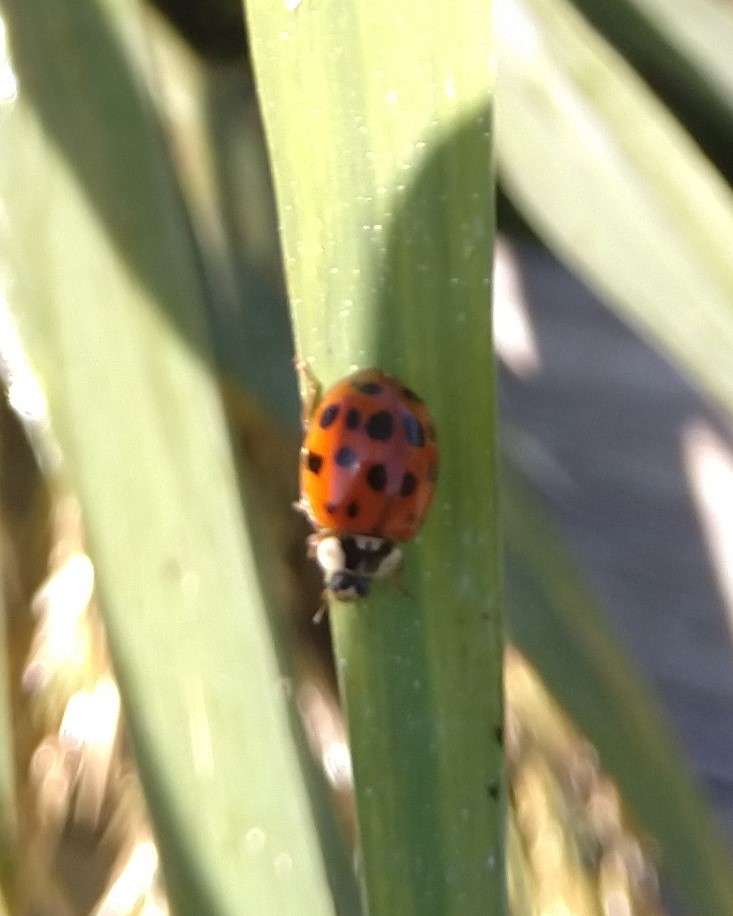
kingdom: Animalia
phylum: Arthropoda
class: Insecta
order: Coleoptera
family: Coccinellidae
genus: Harmonia
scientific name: Harmonia axyridis
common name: Harlequin ladybird
